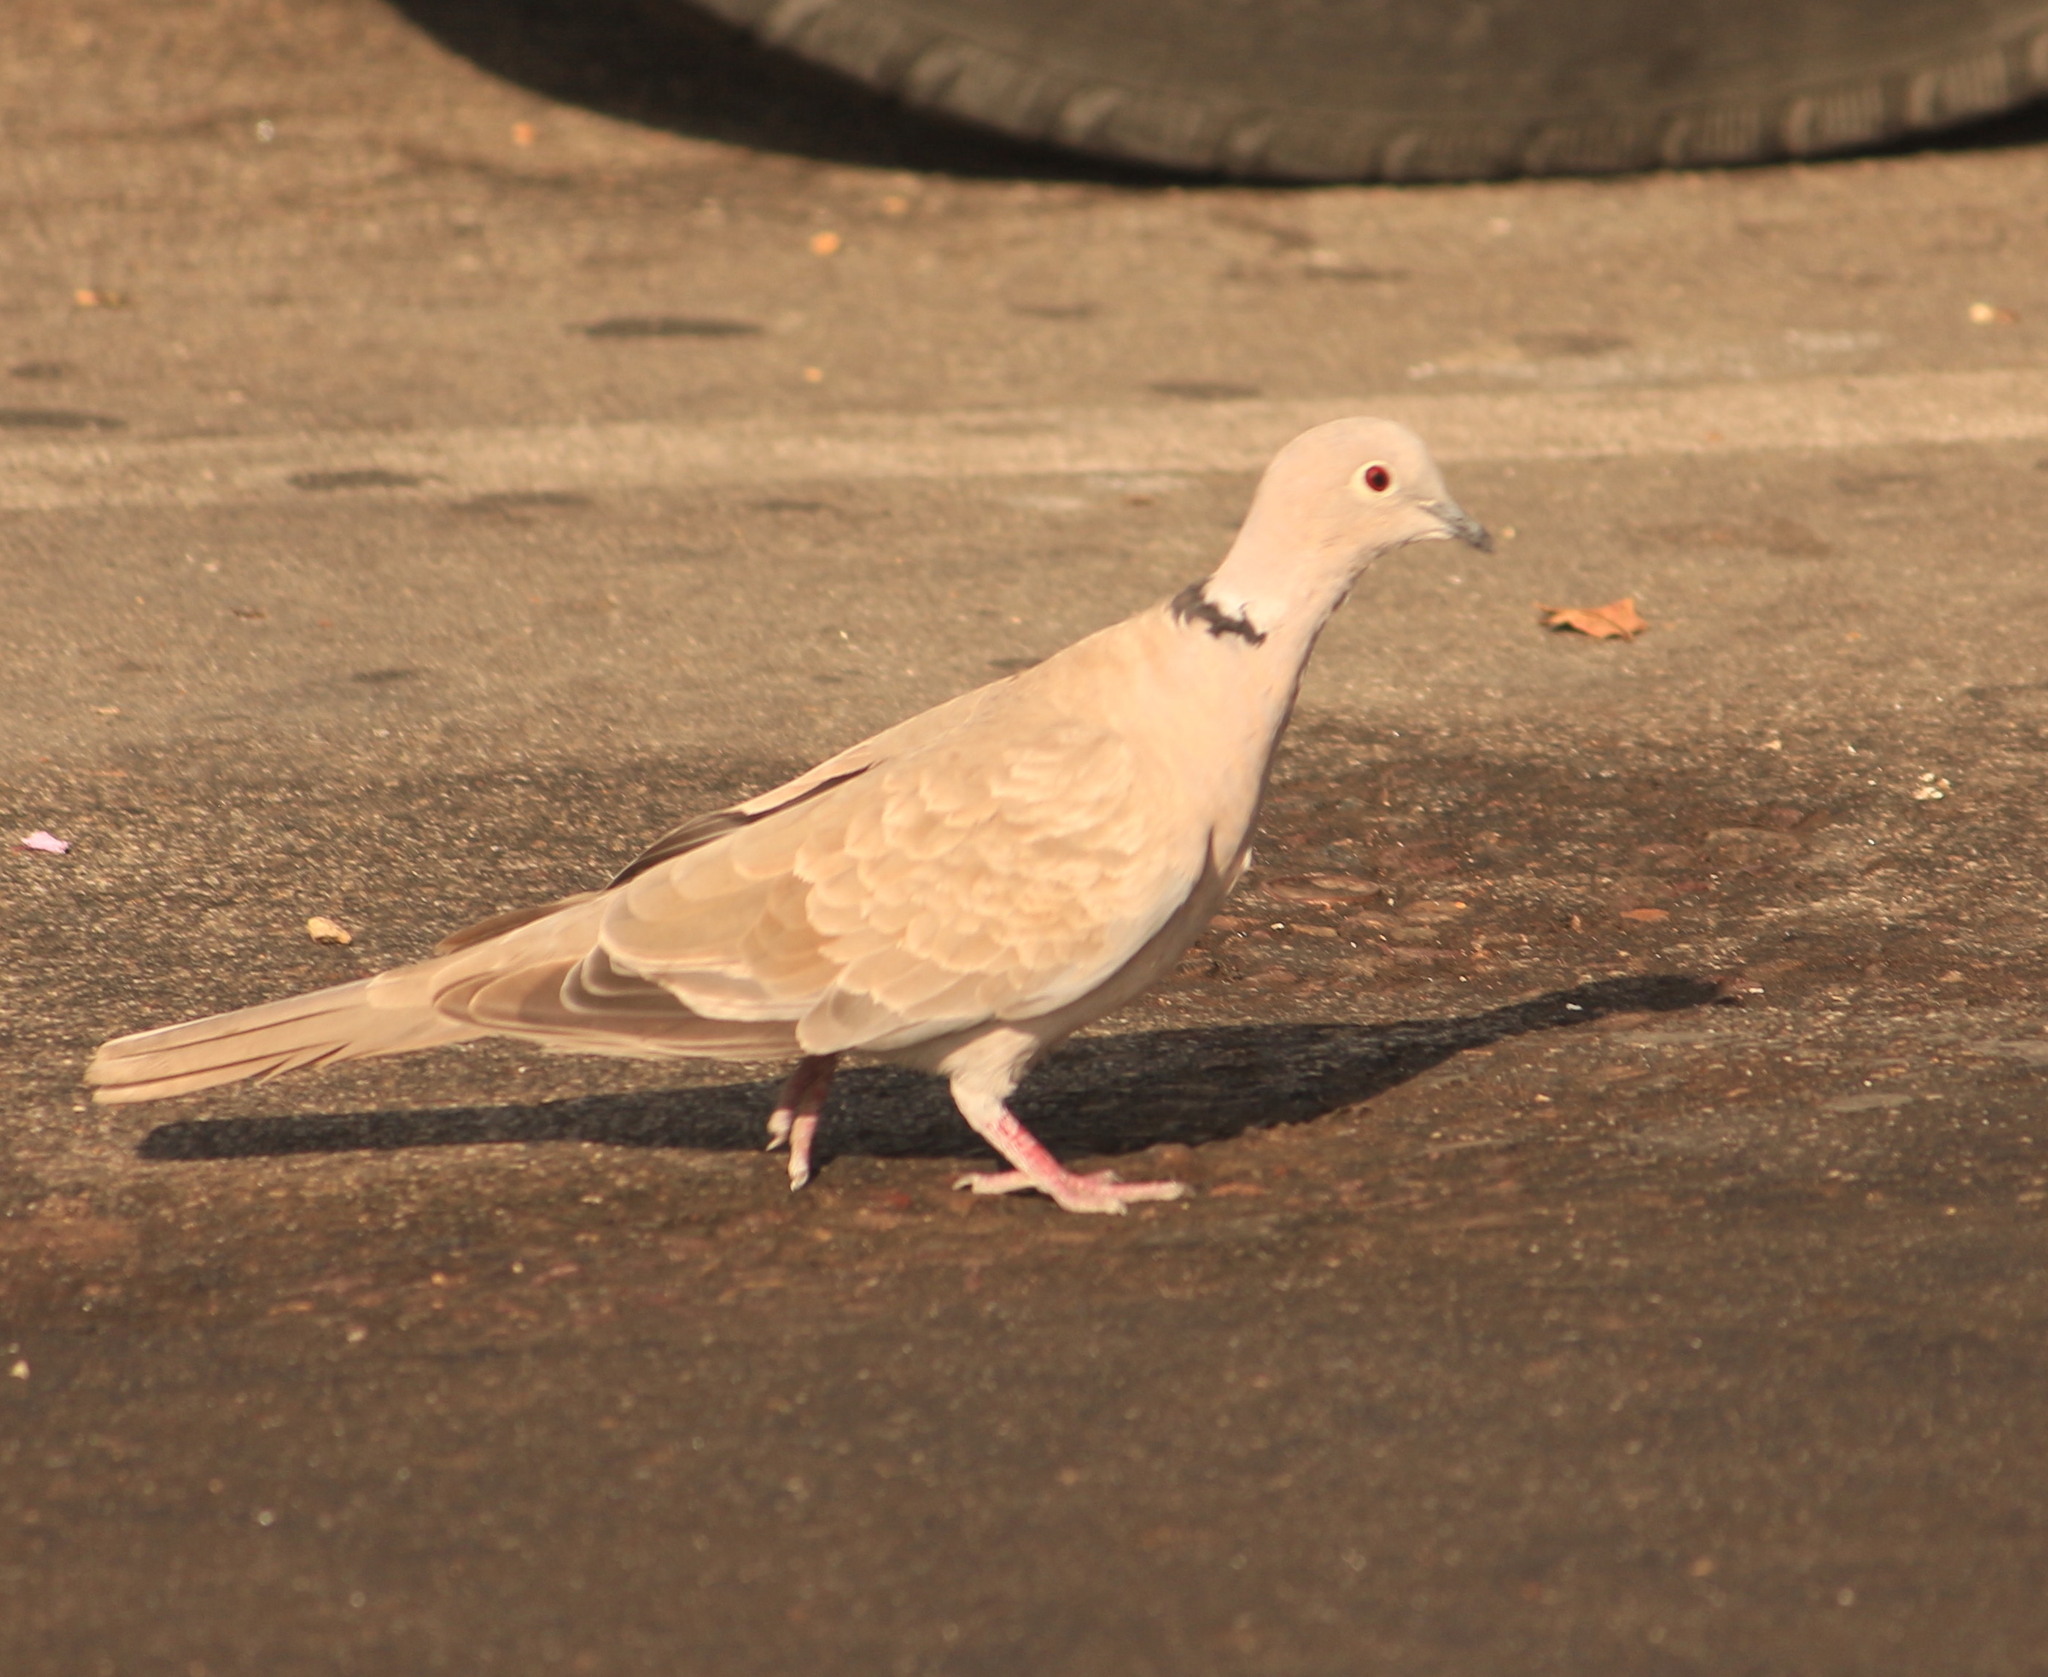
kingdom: Animalia
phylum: Chordata
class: Aves
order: Columbiformes
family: Columbidae
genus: Streptopelia
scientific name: Streptopelia decaocto
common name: Eurasian collared dove
